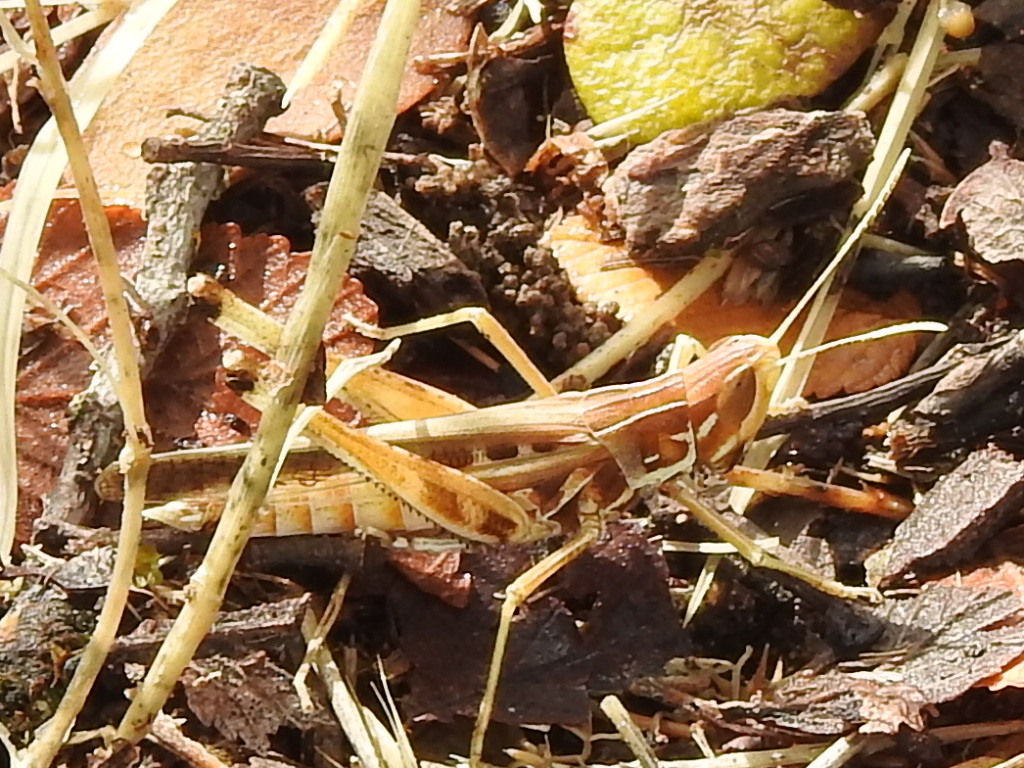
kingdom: Animalia
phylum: Arthropoda
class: Insecta
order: Orthoptera
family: Acrididae
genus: Syrbula
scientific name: Syrbula admirabilis
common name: Handsome grasshopper
